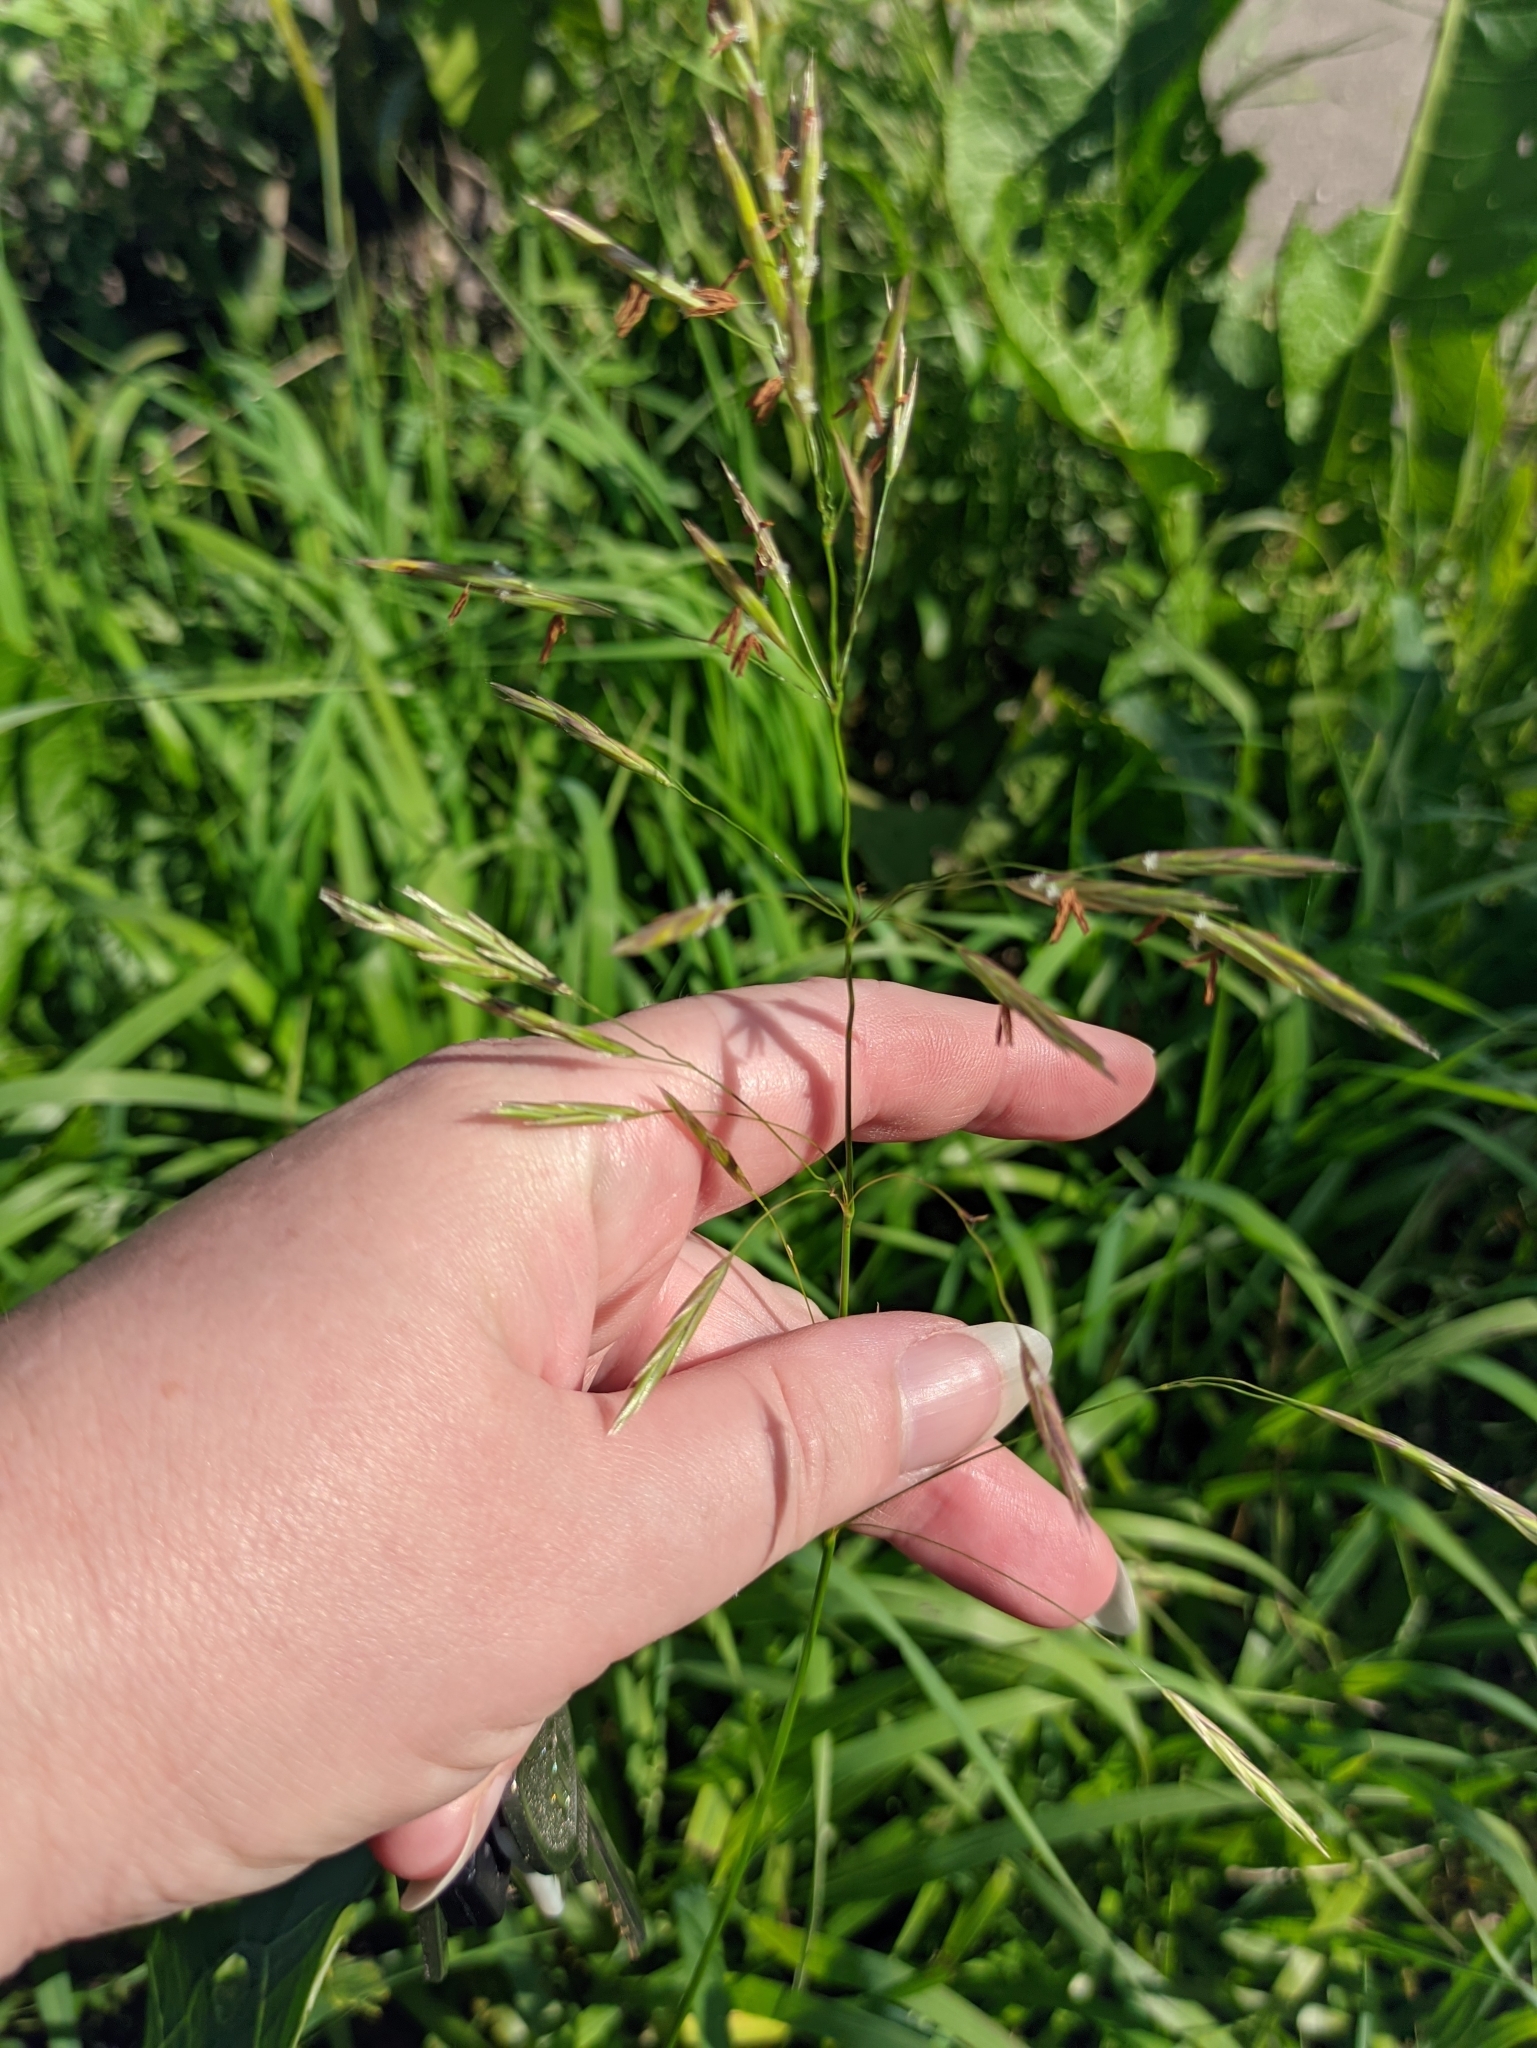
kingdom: Plantae
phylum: Tracheophyta
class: Liliopsida
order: Poales
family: Poaceae
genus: Bromus
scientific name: Bromus inermis
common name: Smooth brome
